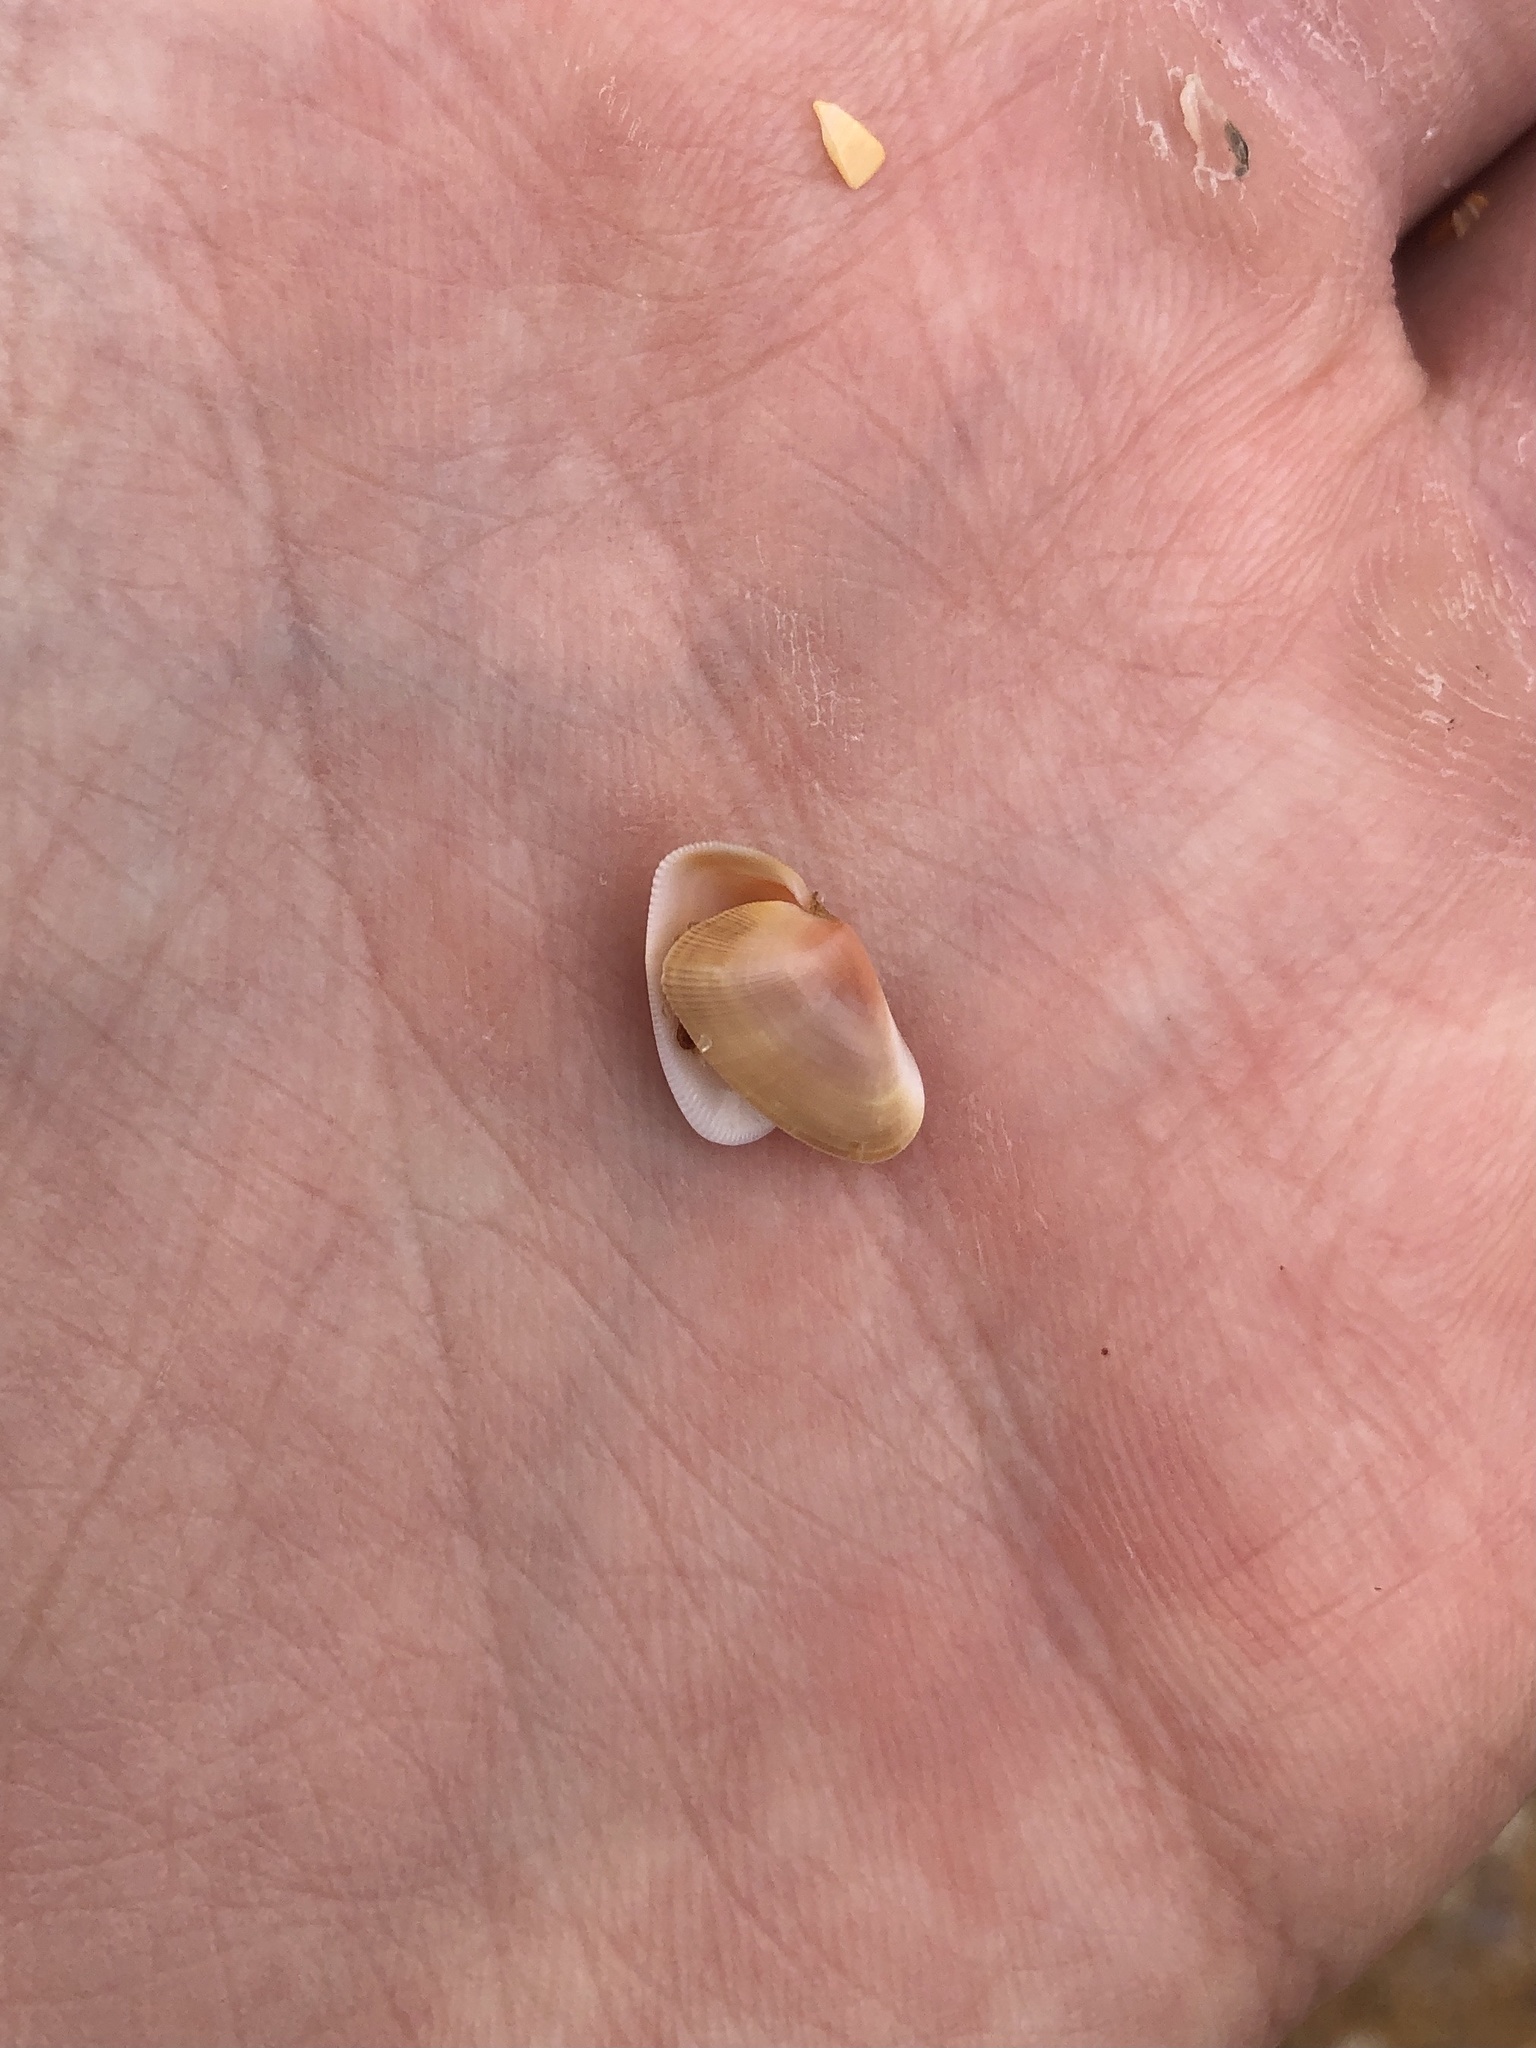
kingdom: Animalia
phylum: Mollusca
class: Bivalvia
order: Cardiida
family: Donacidae
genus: Donax
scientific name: Donax variabilis
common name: Butterfly shell
